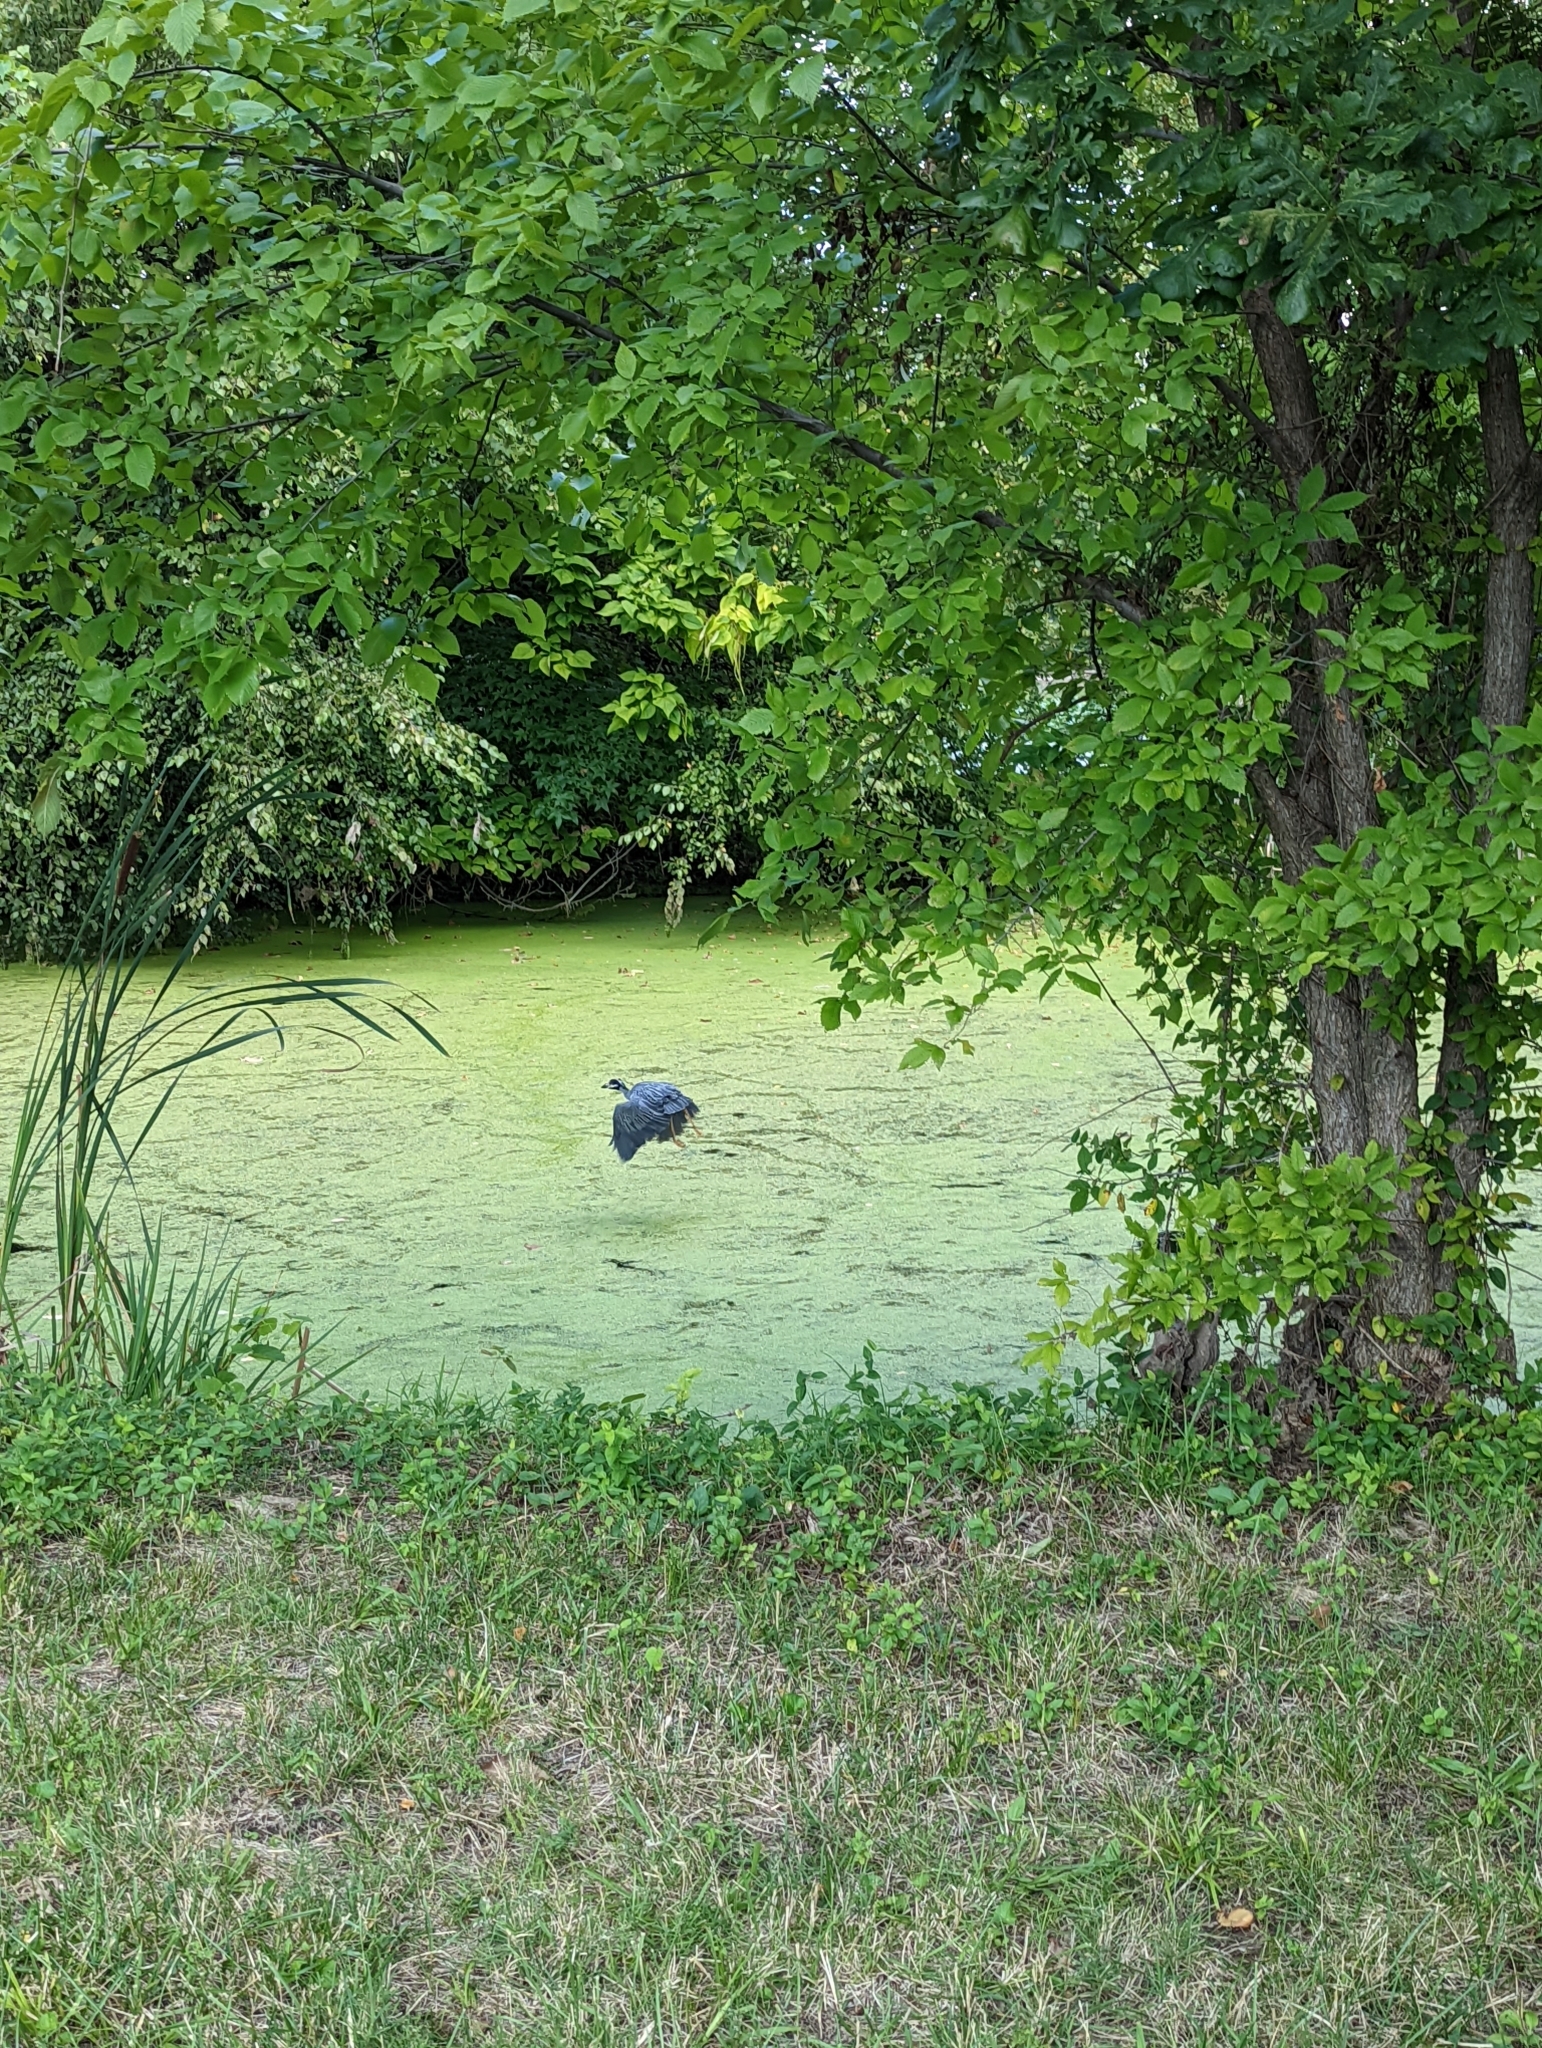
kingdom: Animalia
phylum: Chordata
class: Aves
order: Pelecaniformes
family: Ardeidae
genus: Nyctanassa
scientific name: Nyctanassa violacea
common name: Yellow-crowned night heron
